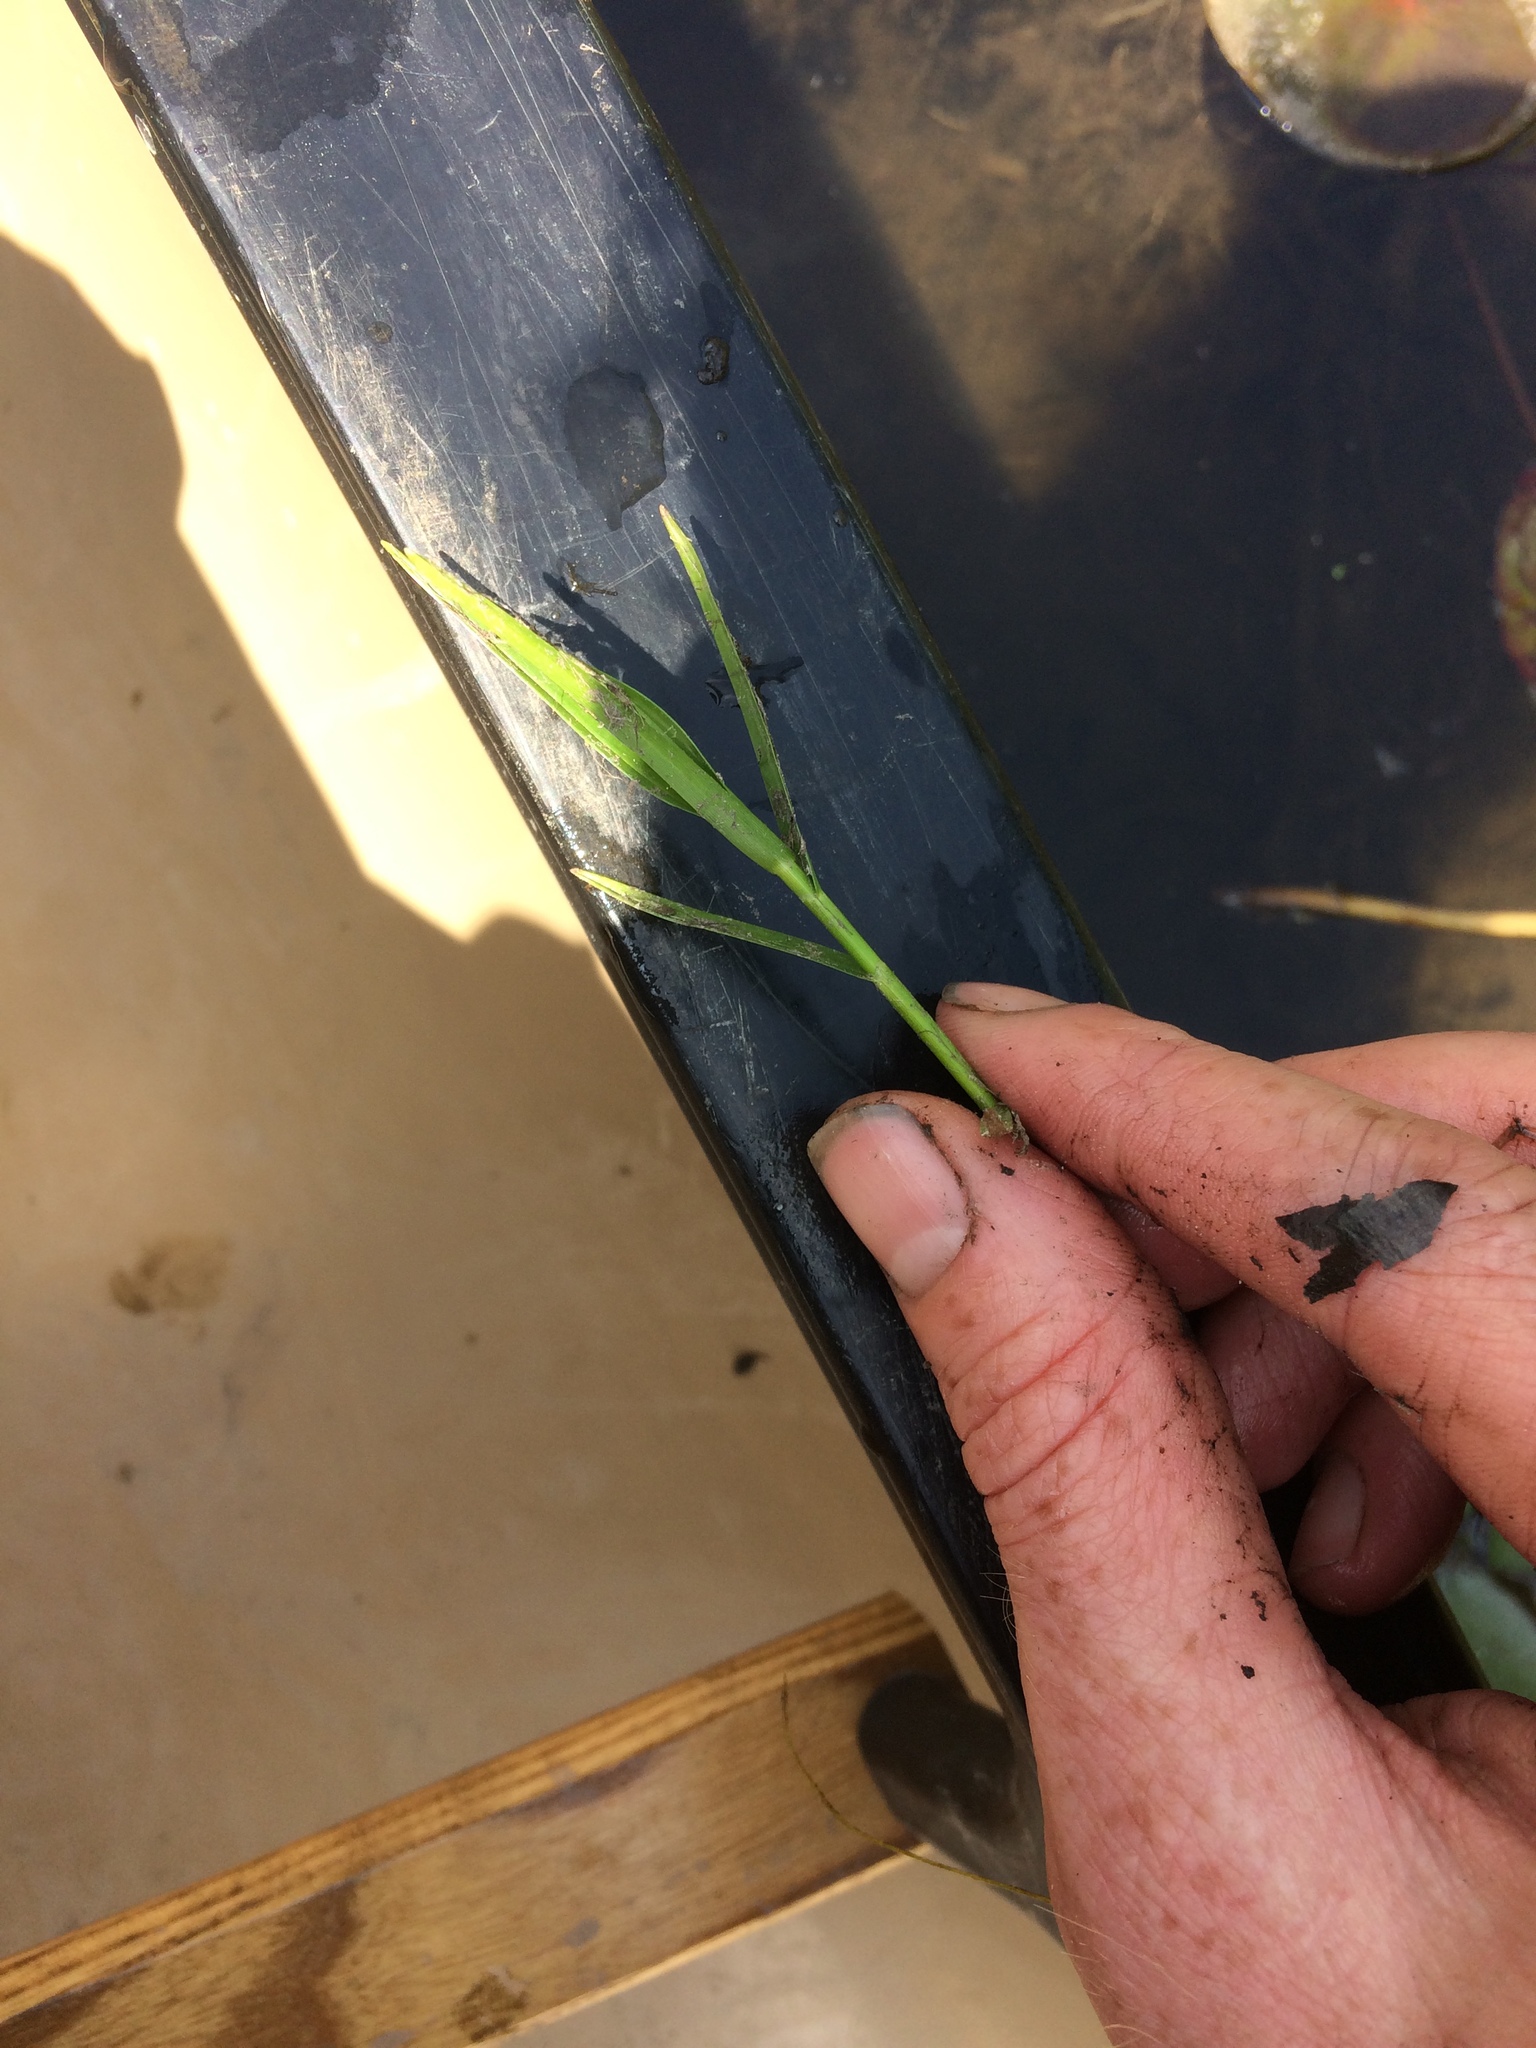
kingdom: Plantae
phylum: Tracheophyta
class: Liliopsida
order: Poales
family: Cyperaceae
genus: Dulichium
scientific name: Dulichium arundinaceum
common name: Three-way sedge
